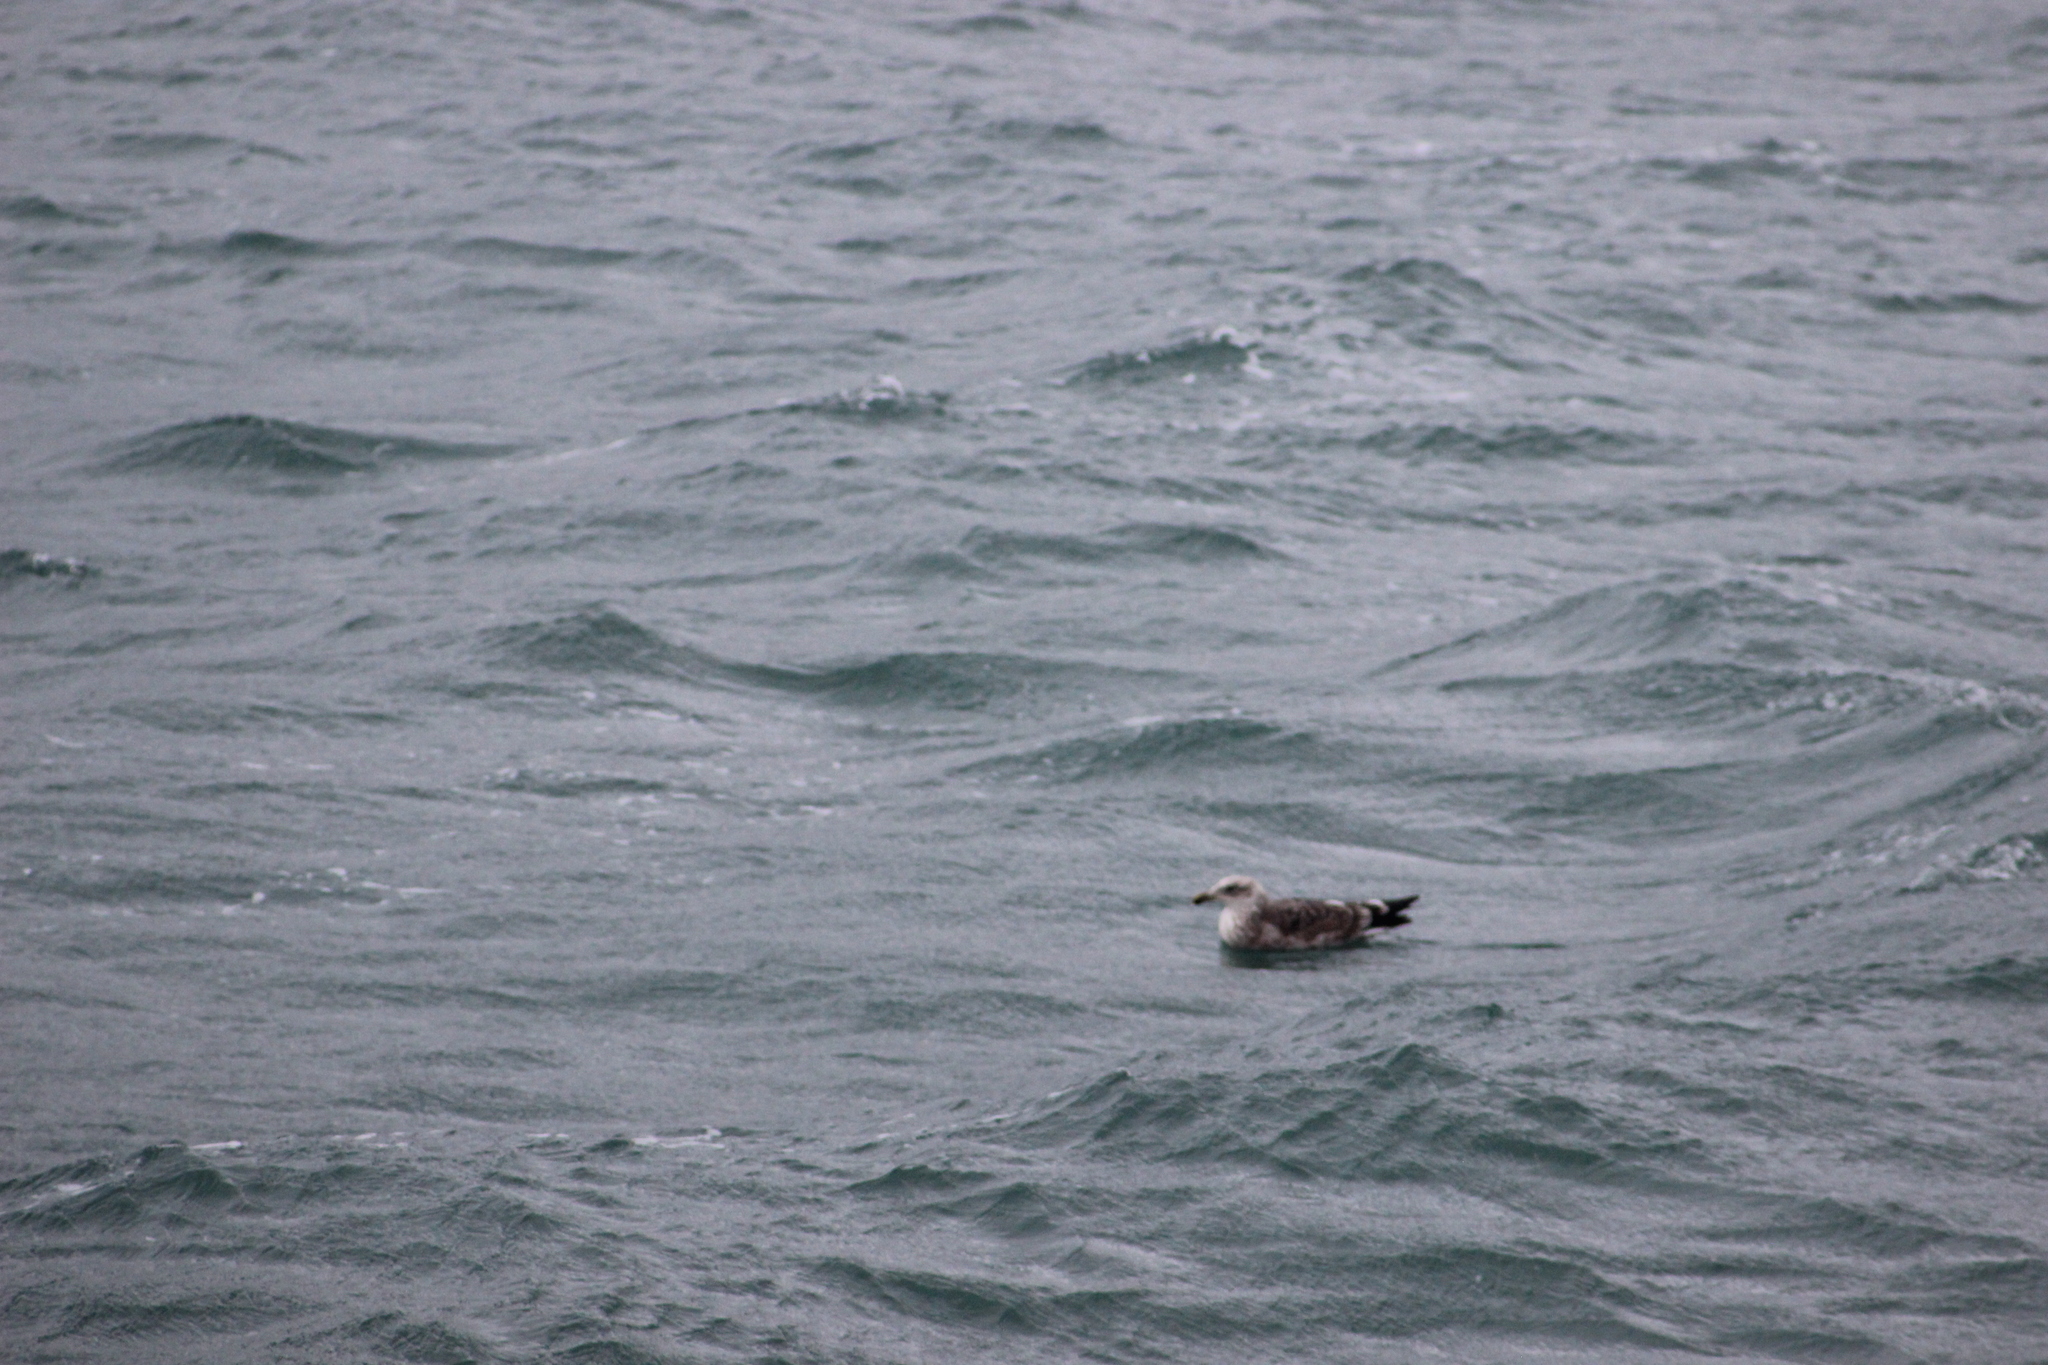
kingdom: Animalia
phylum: Chordata
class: Aves
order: Charadriiformes
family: Laridae
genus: Larus
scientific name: Larus dominicanus
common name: Kelp gull
